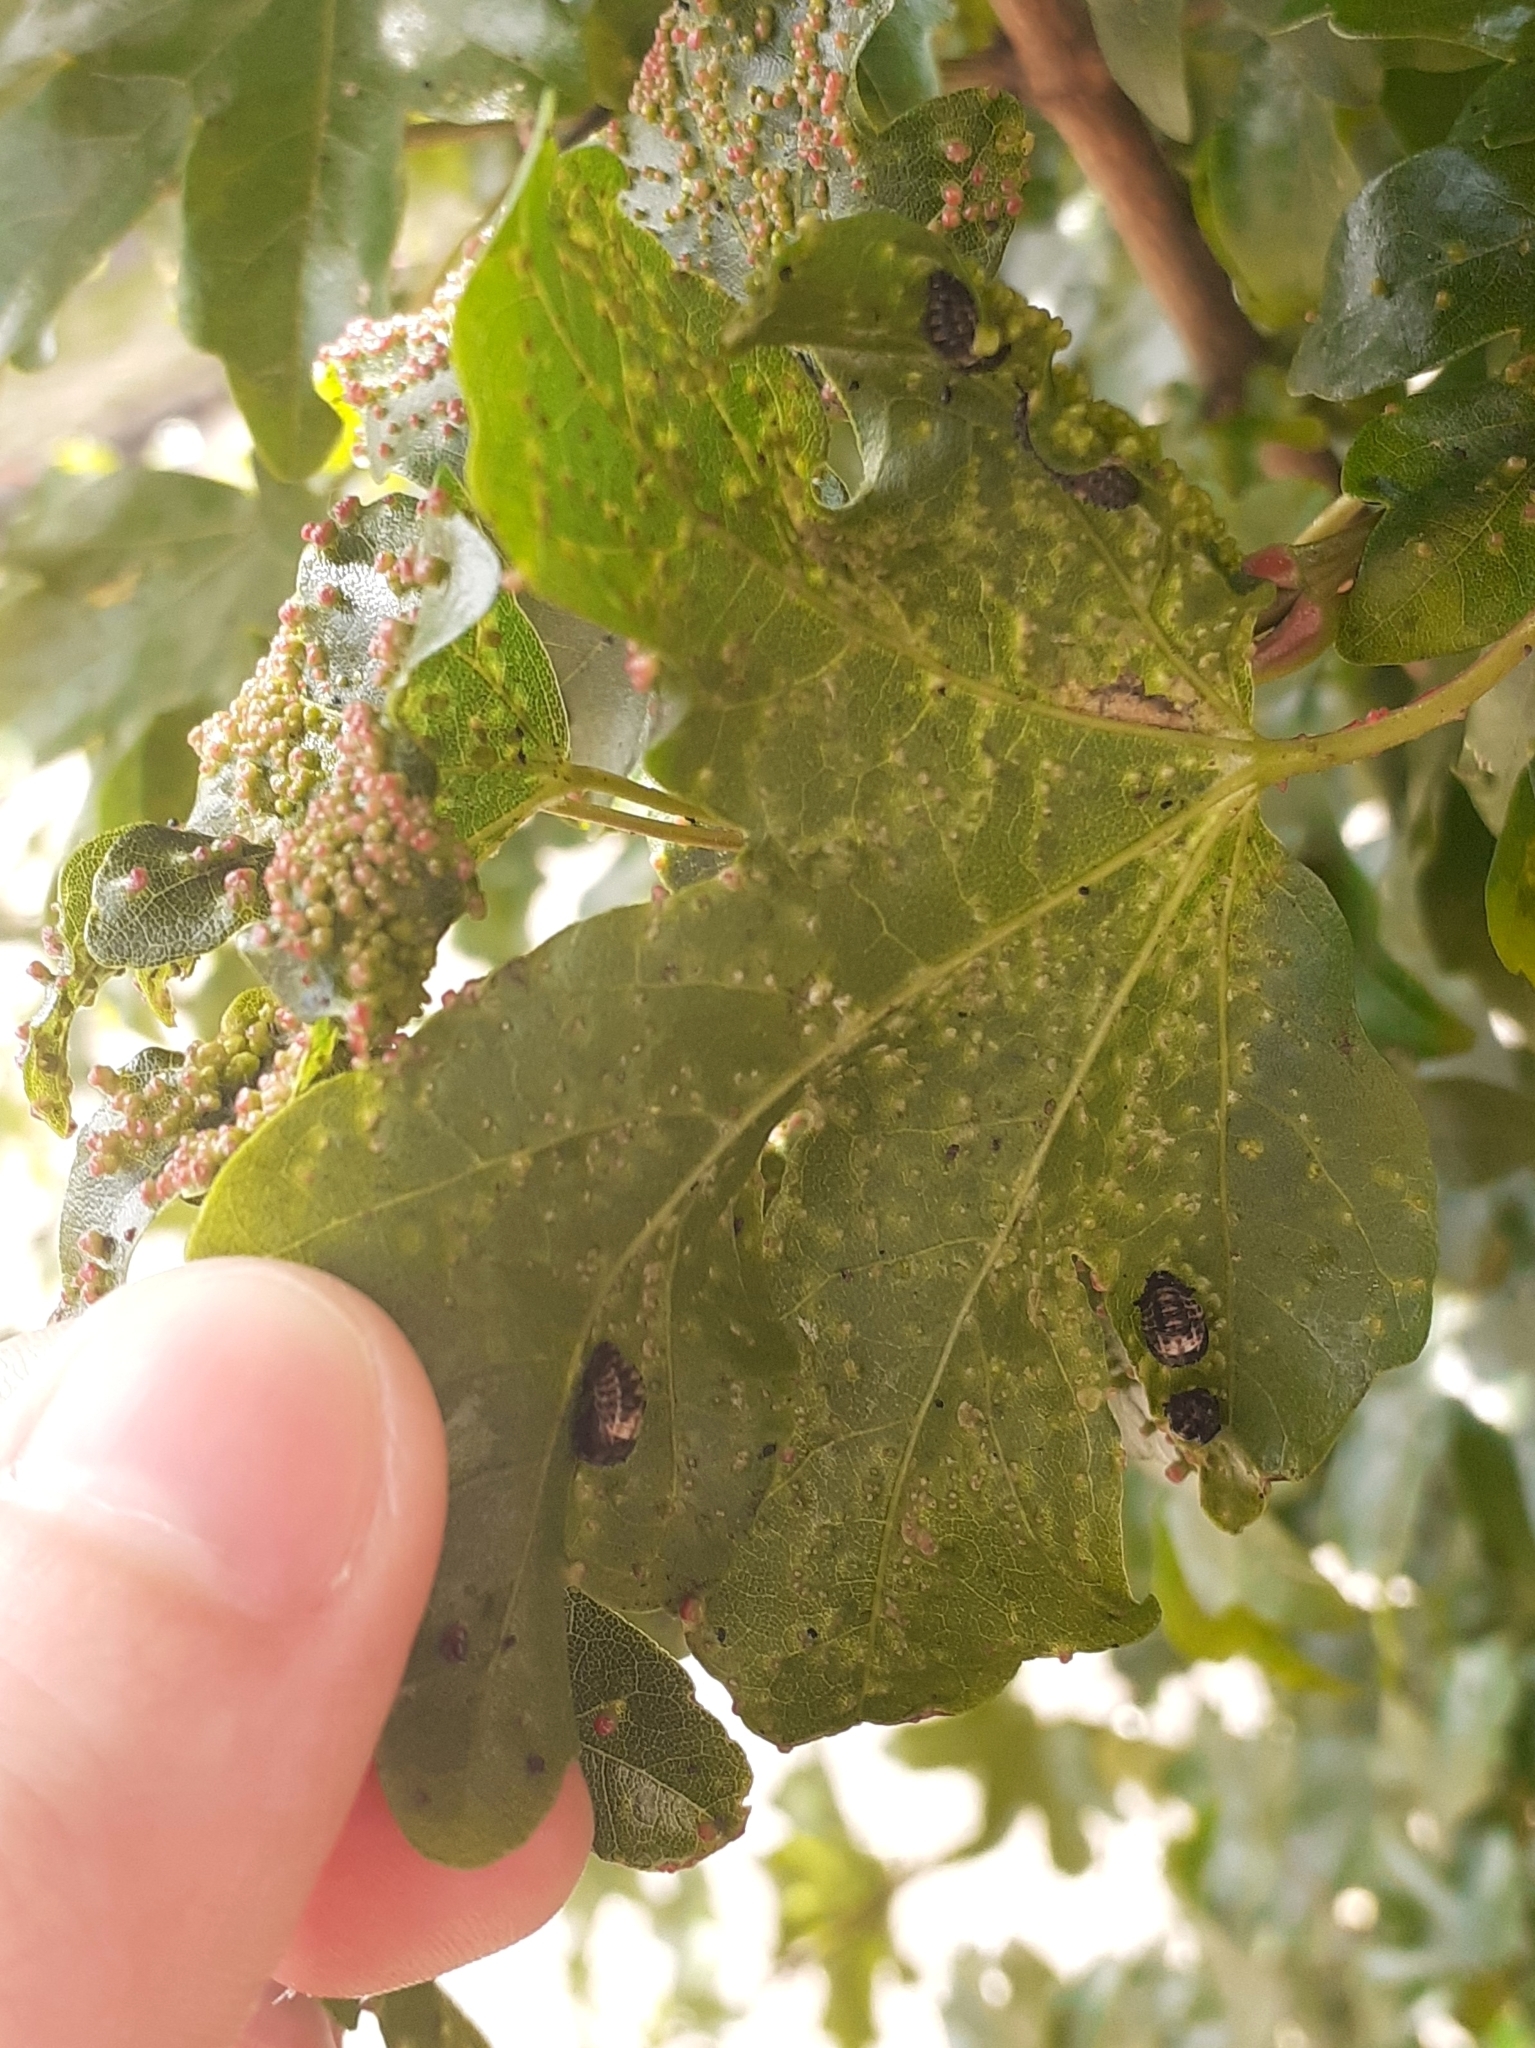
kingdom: Animalia
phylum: Arthropoda
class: Arachnida
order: Trombidiformes
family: Eriophyidae
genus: Aceria
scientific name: Aceria myriadeum
